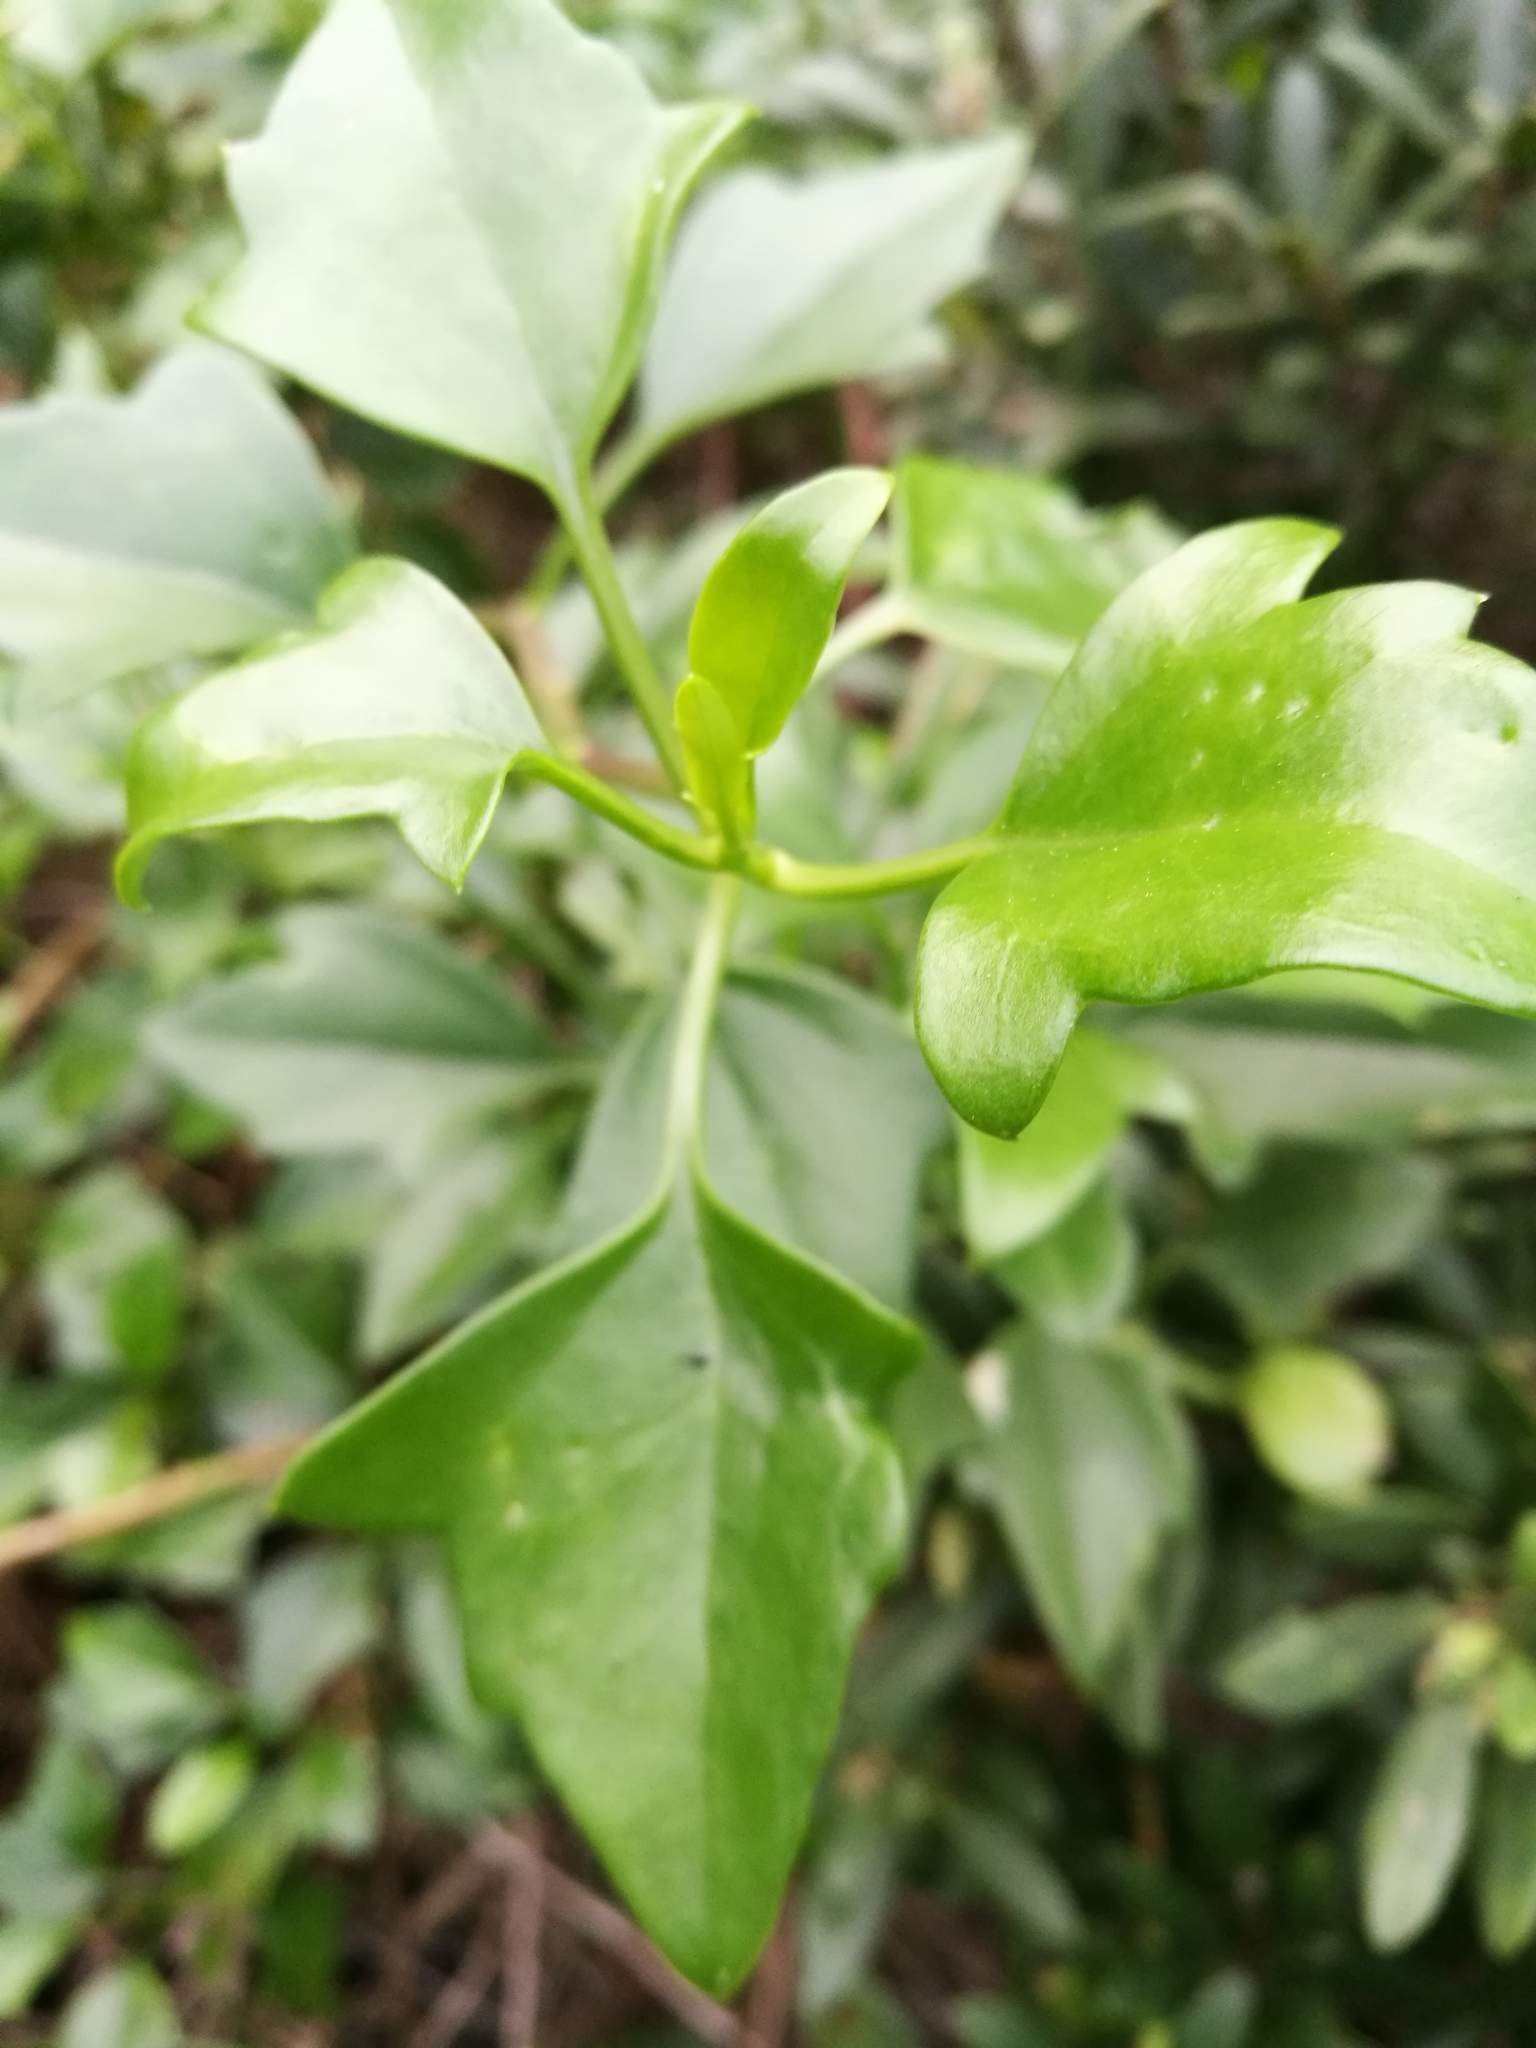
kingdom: Plantae
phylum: Tracheophyta
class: Magnoliopsida
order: Asterales
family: Asteraceae
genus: Senecio
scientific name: Senecio angulatus
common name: Climbing groundsel
